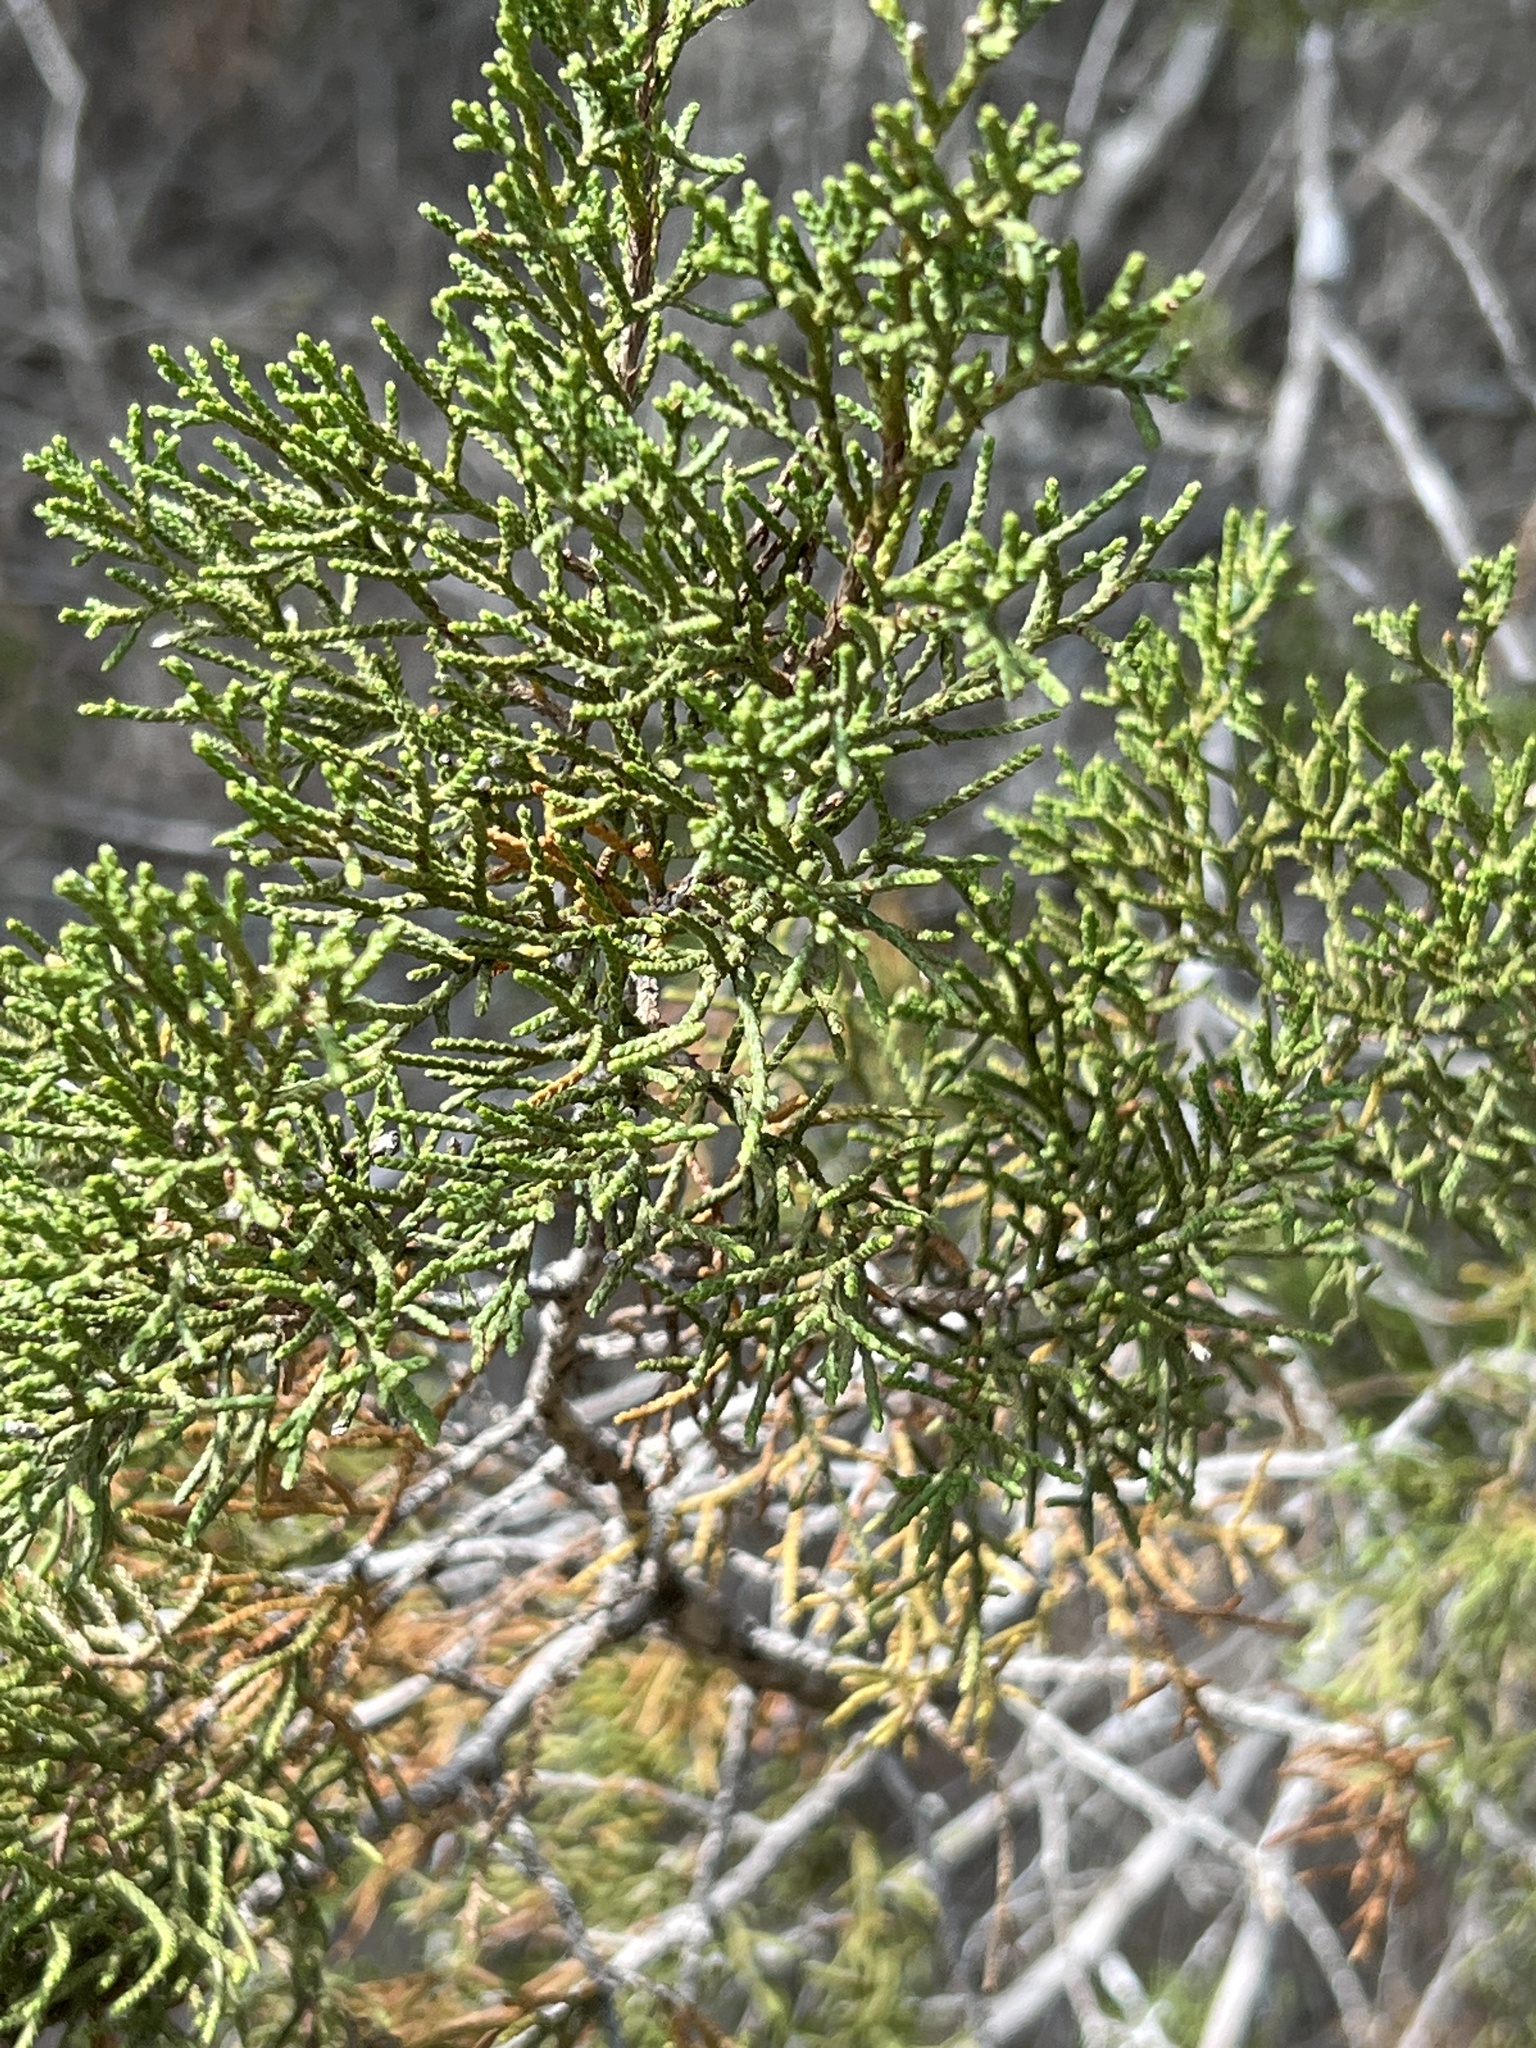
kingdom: Plantae
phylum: Tracheophyta
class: Pinopsida
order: Pinales
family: Cupressaceae
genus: Juniperus
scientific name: Juniperus ashei
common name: Mexican juniper
